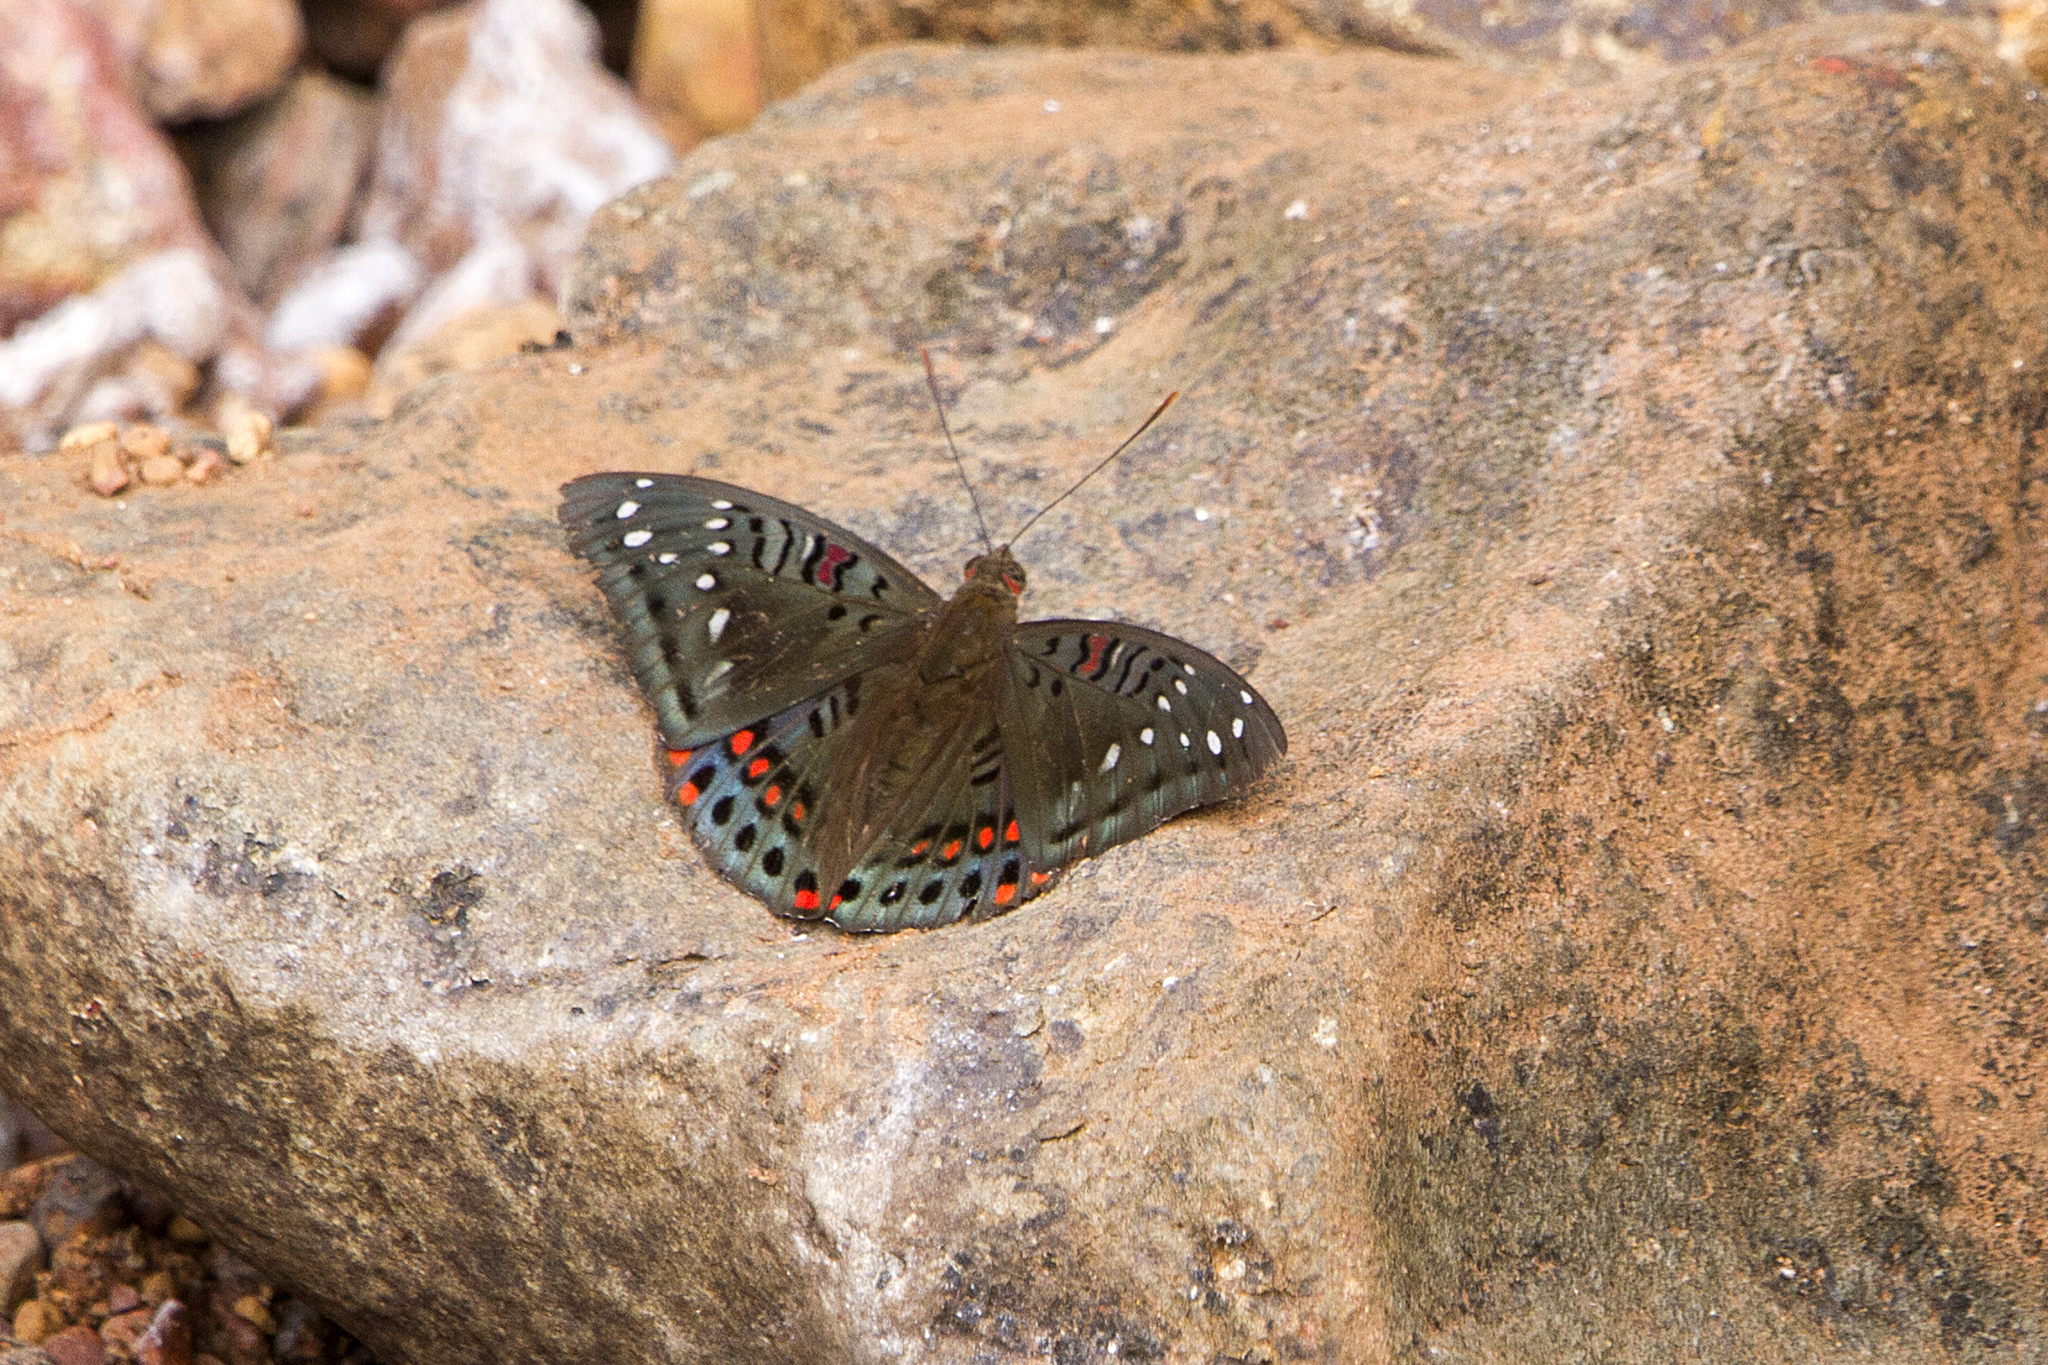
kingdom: Animalia
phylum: Arthropoda
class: Insecta
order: Lepidoptera
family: Nymphalidae
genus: Euthalia
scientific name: Euthalia lubentina
